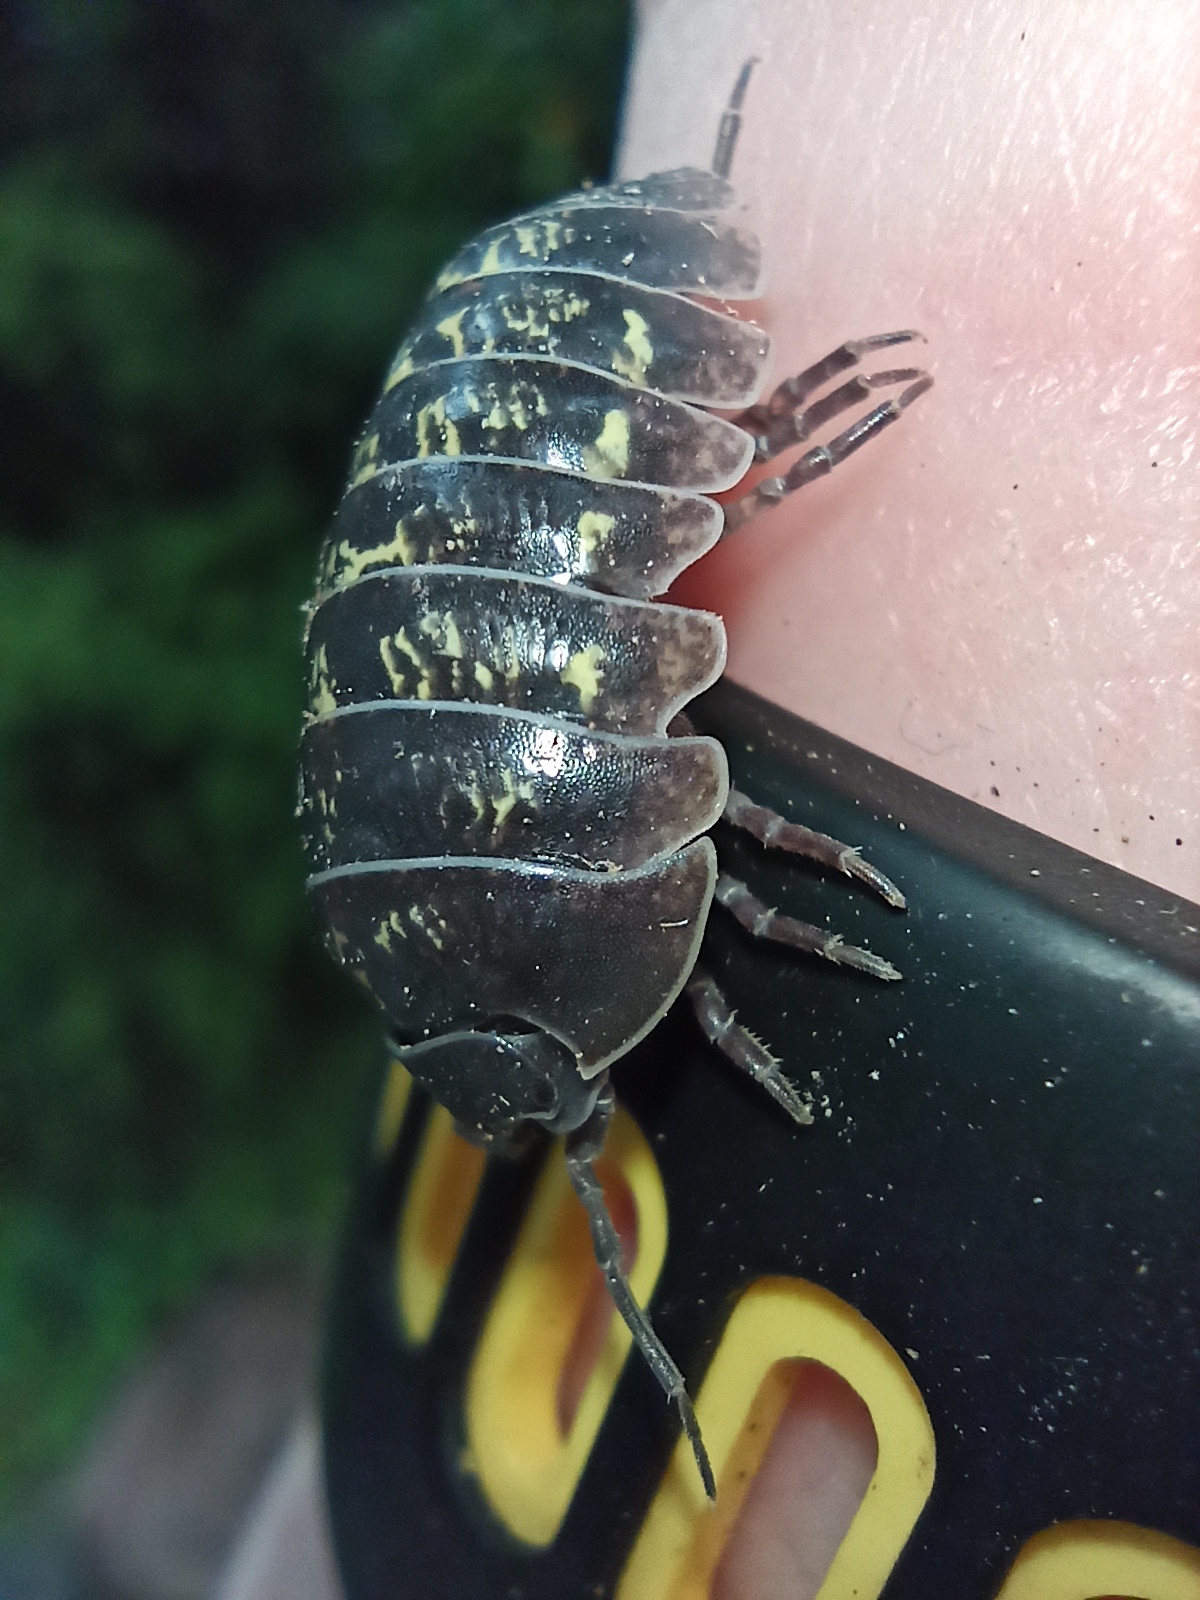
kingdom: Animalia
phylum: Arthropoda
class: Malacostraca
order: Isopoda
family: Armadillidiidae
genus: Armadillidium
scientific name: Armadillidium vulgare
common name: Common pill woodlouse
